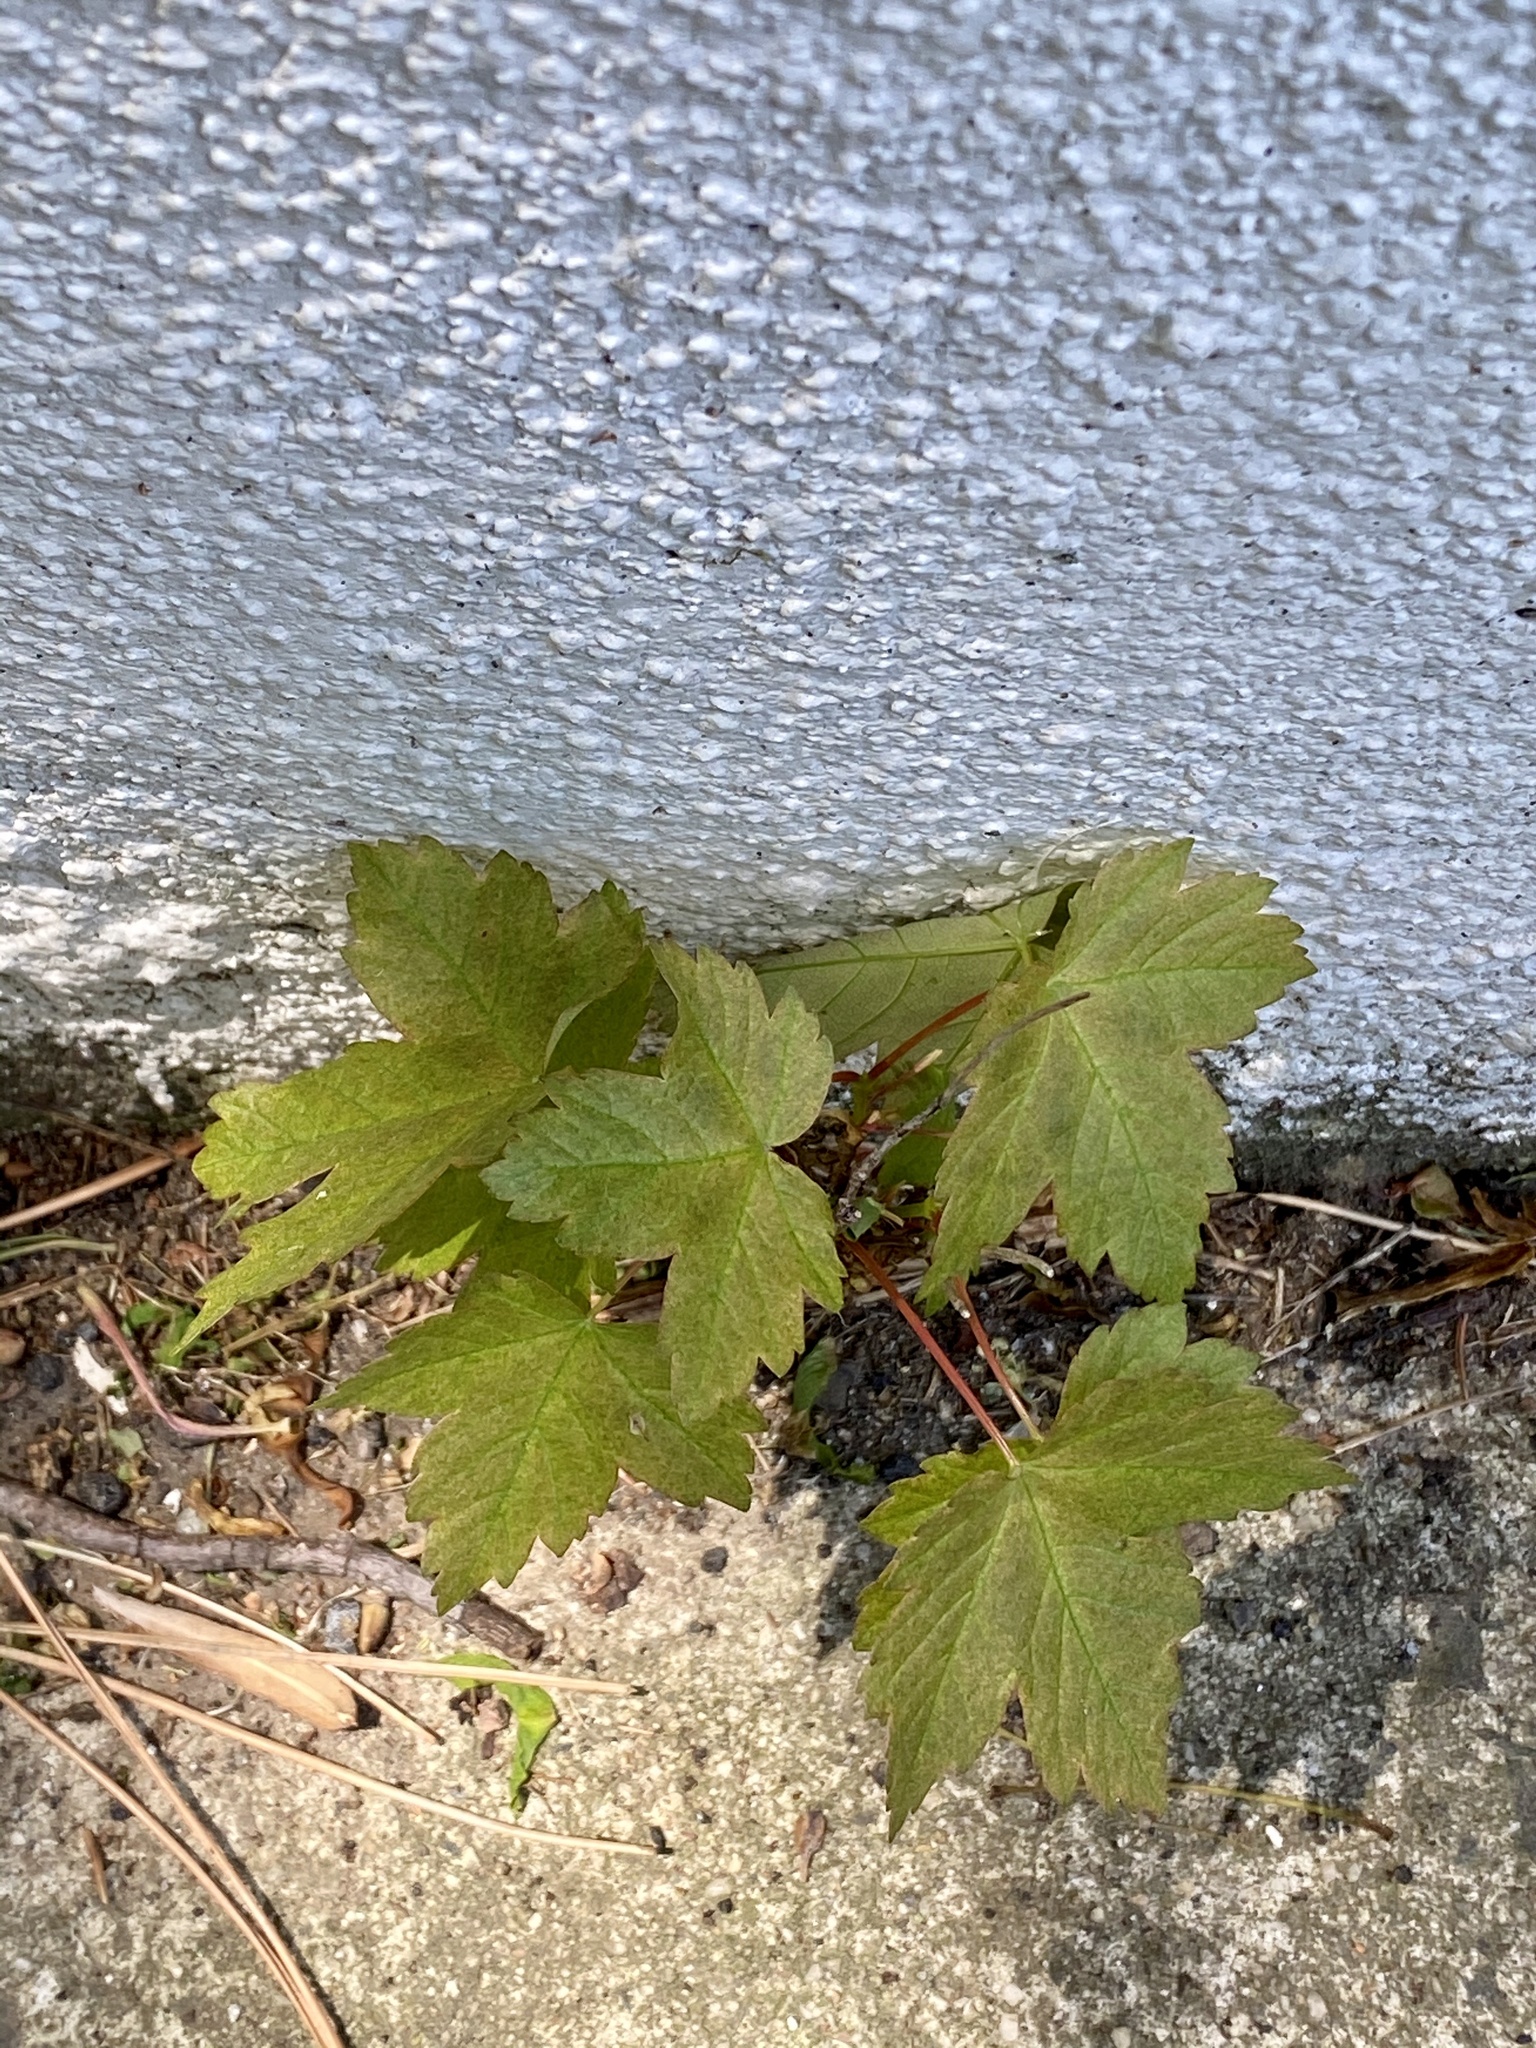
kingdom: Plantae
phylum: Tracheophyta
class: Magnoliopsida
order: Sapindales
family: Sapindaceae
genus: Acer
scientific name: Acer pseudoplatanus
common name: Sycamore
